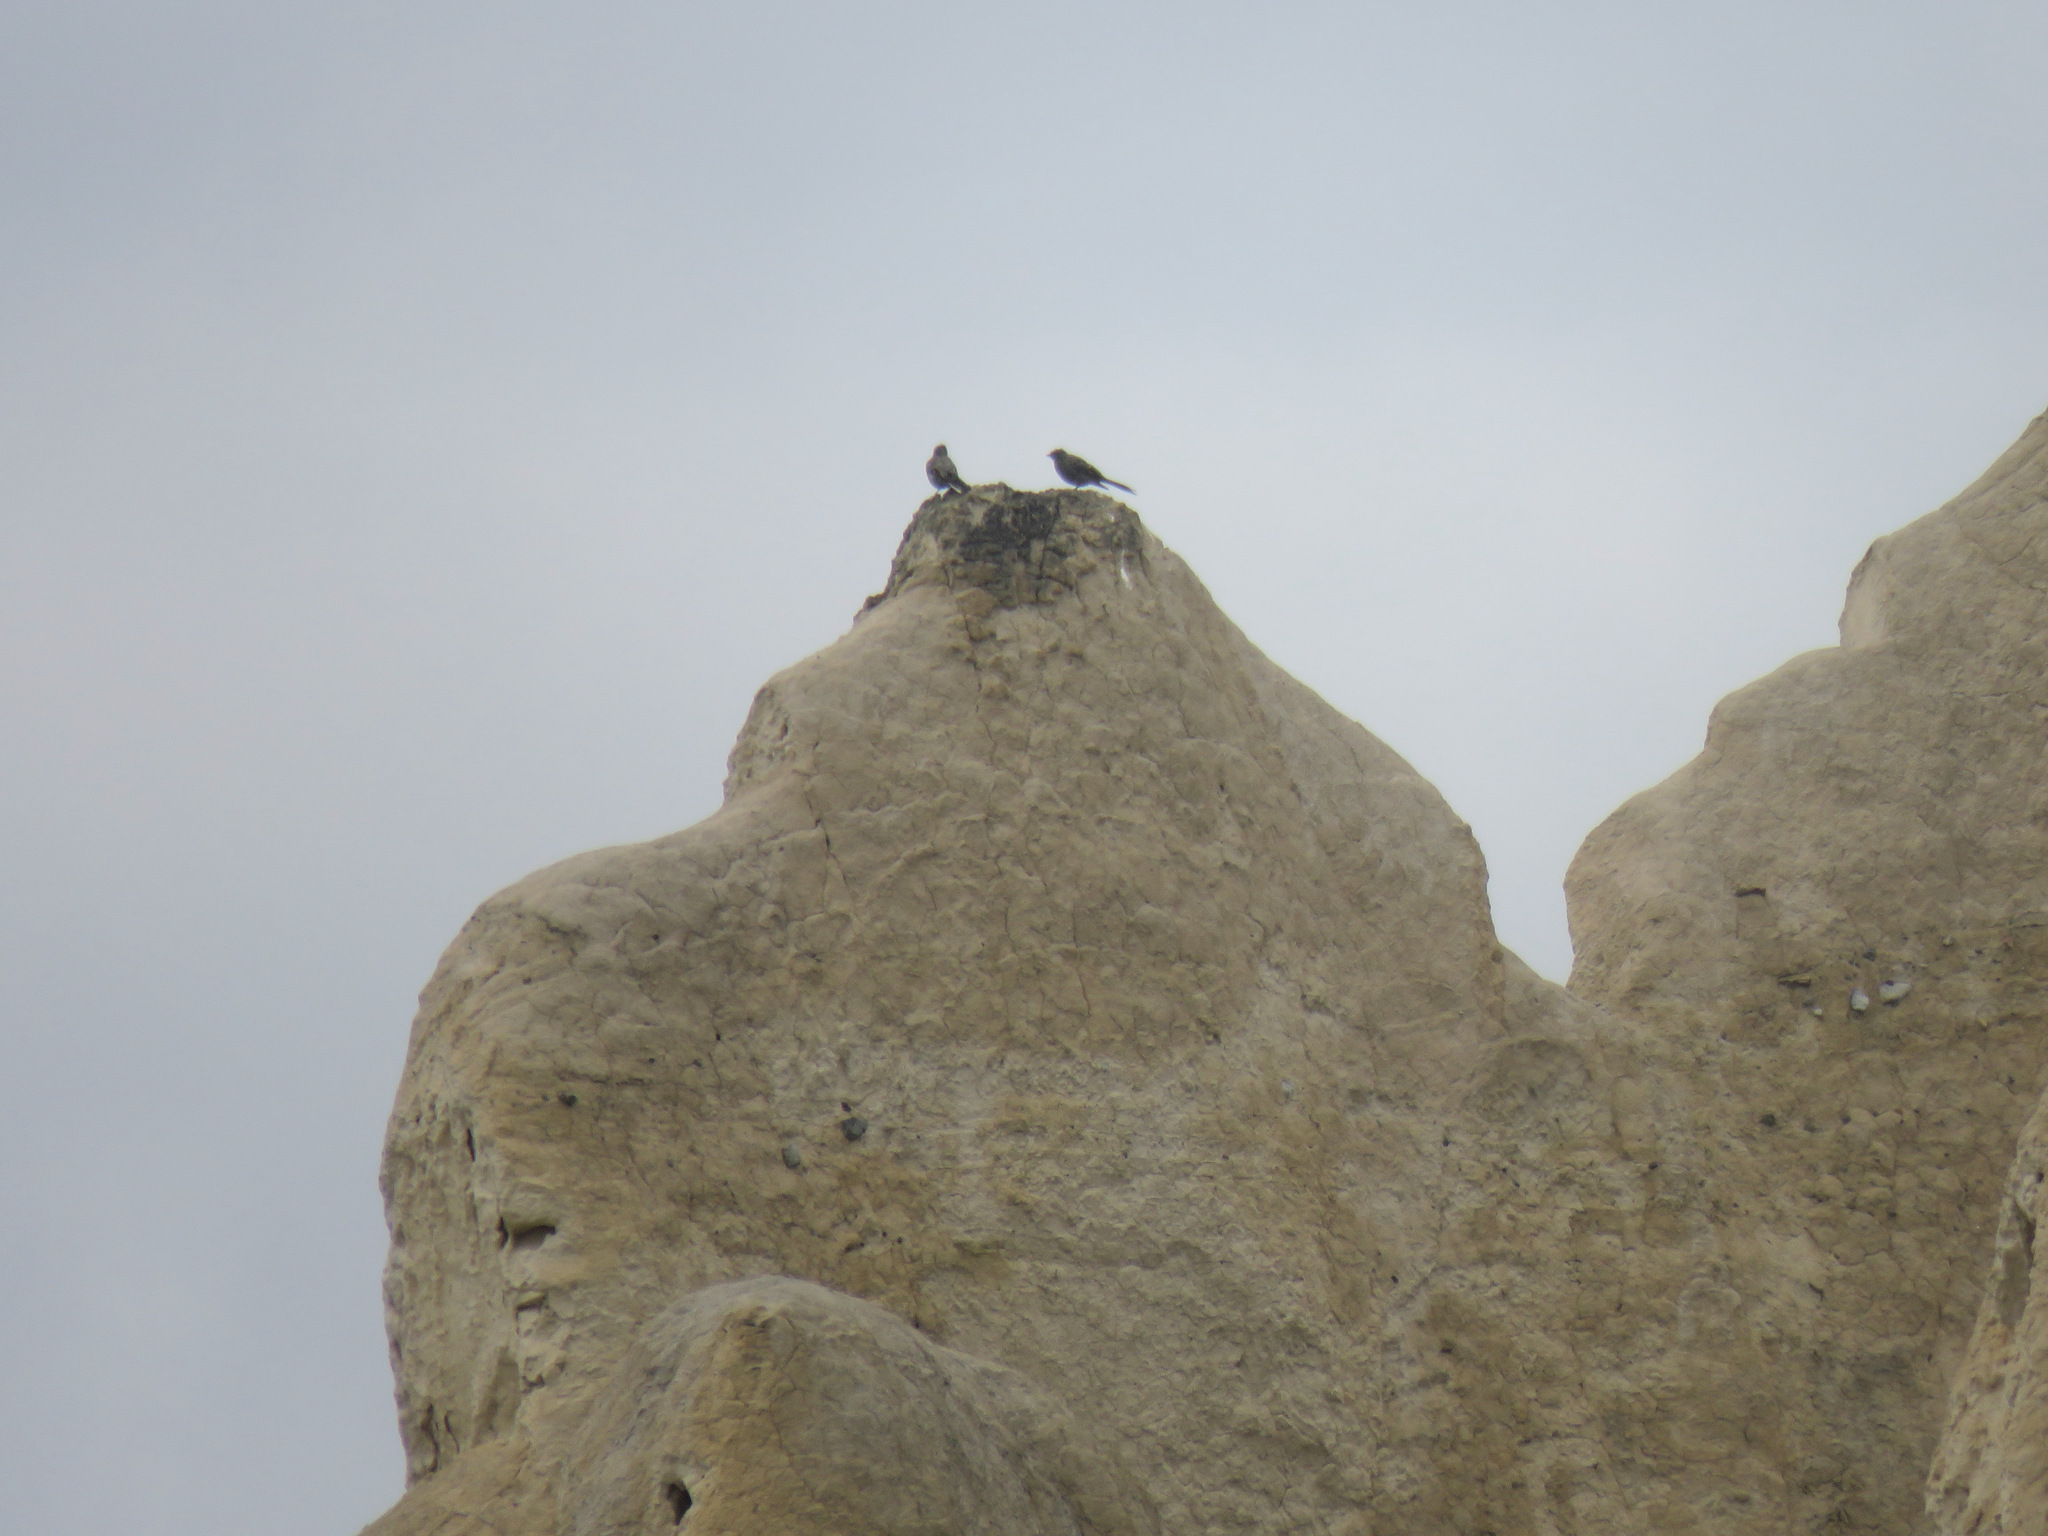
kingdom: Animalia
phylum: Chordata
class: Aves
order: Passeriformes
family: Turdidae
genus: Myadestes
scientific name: Myadestes townsendi
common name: Townsend's solitaire
